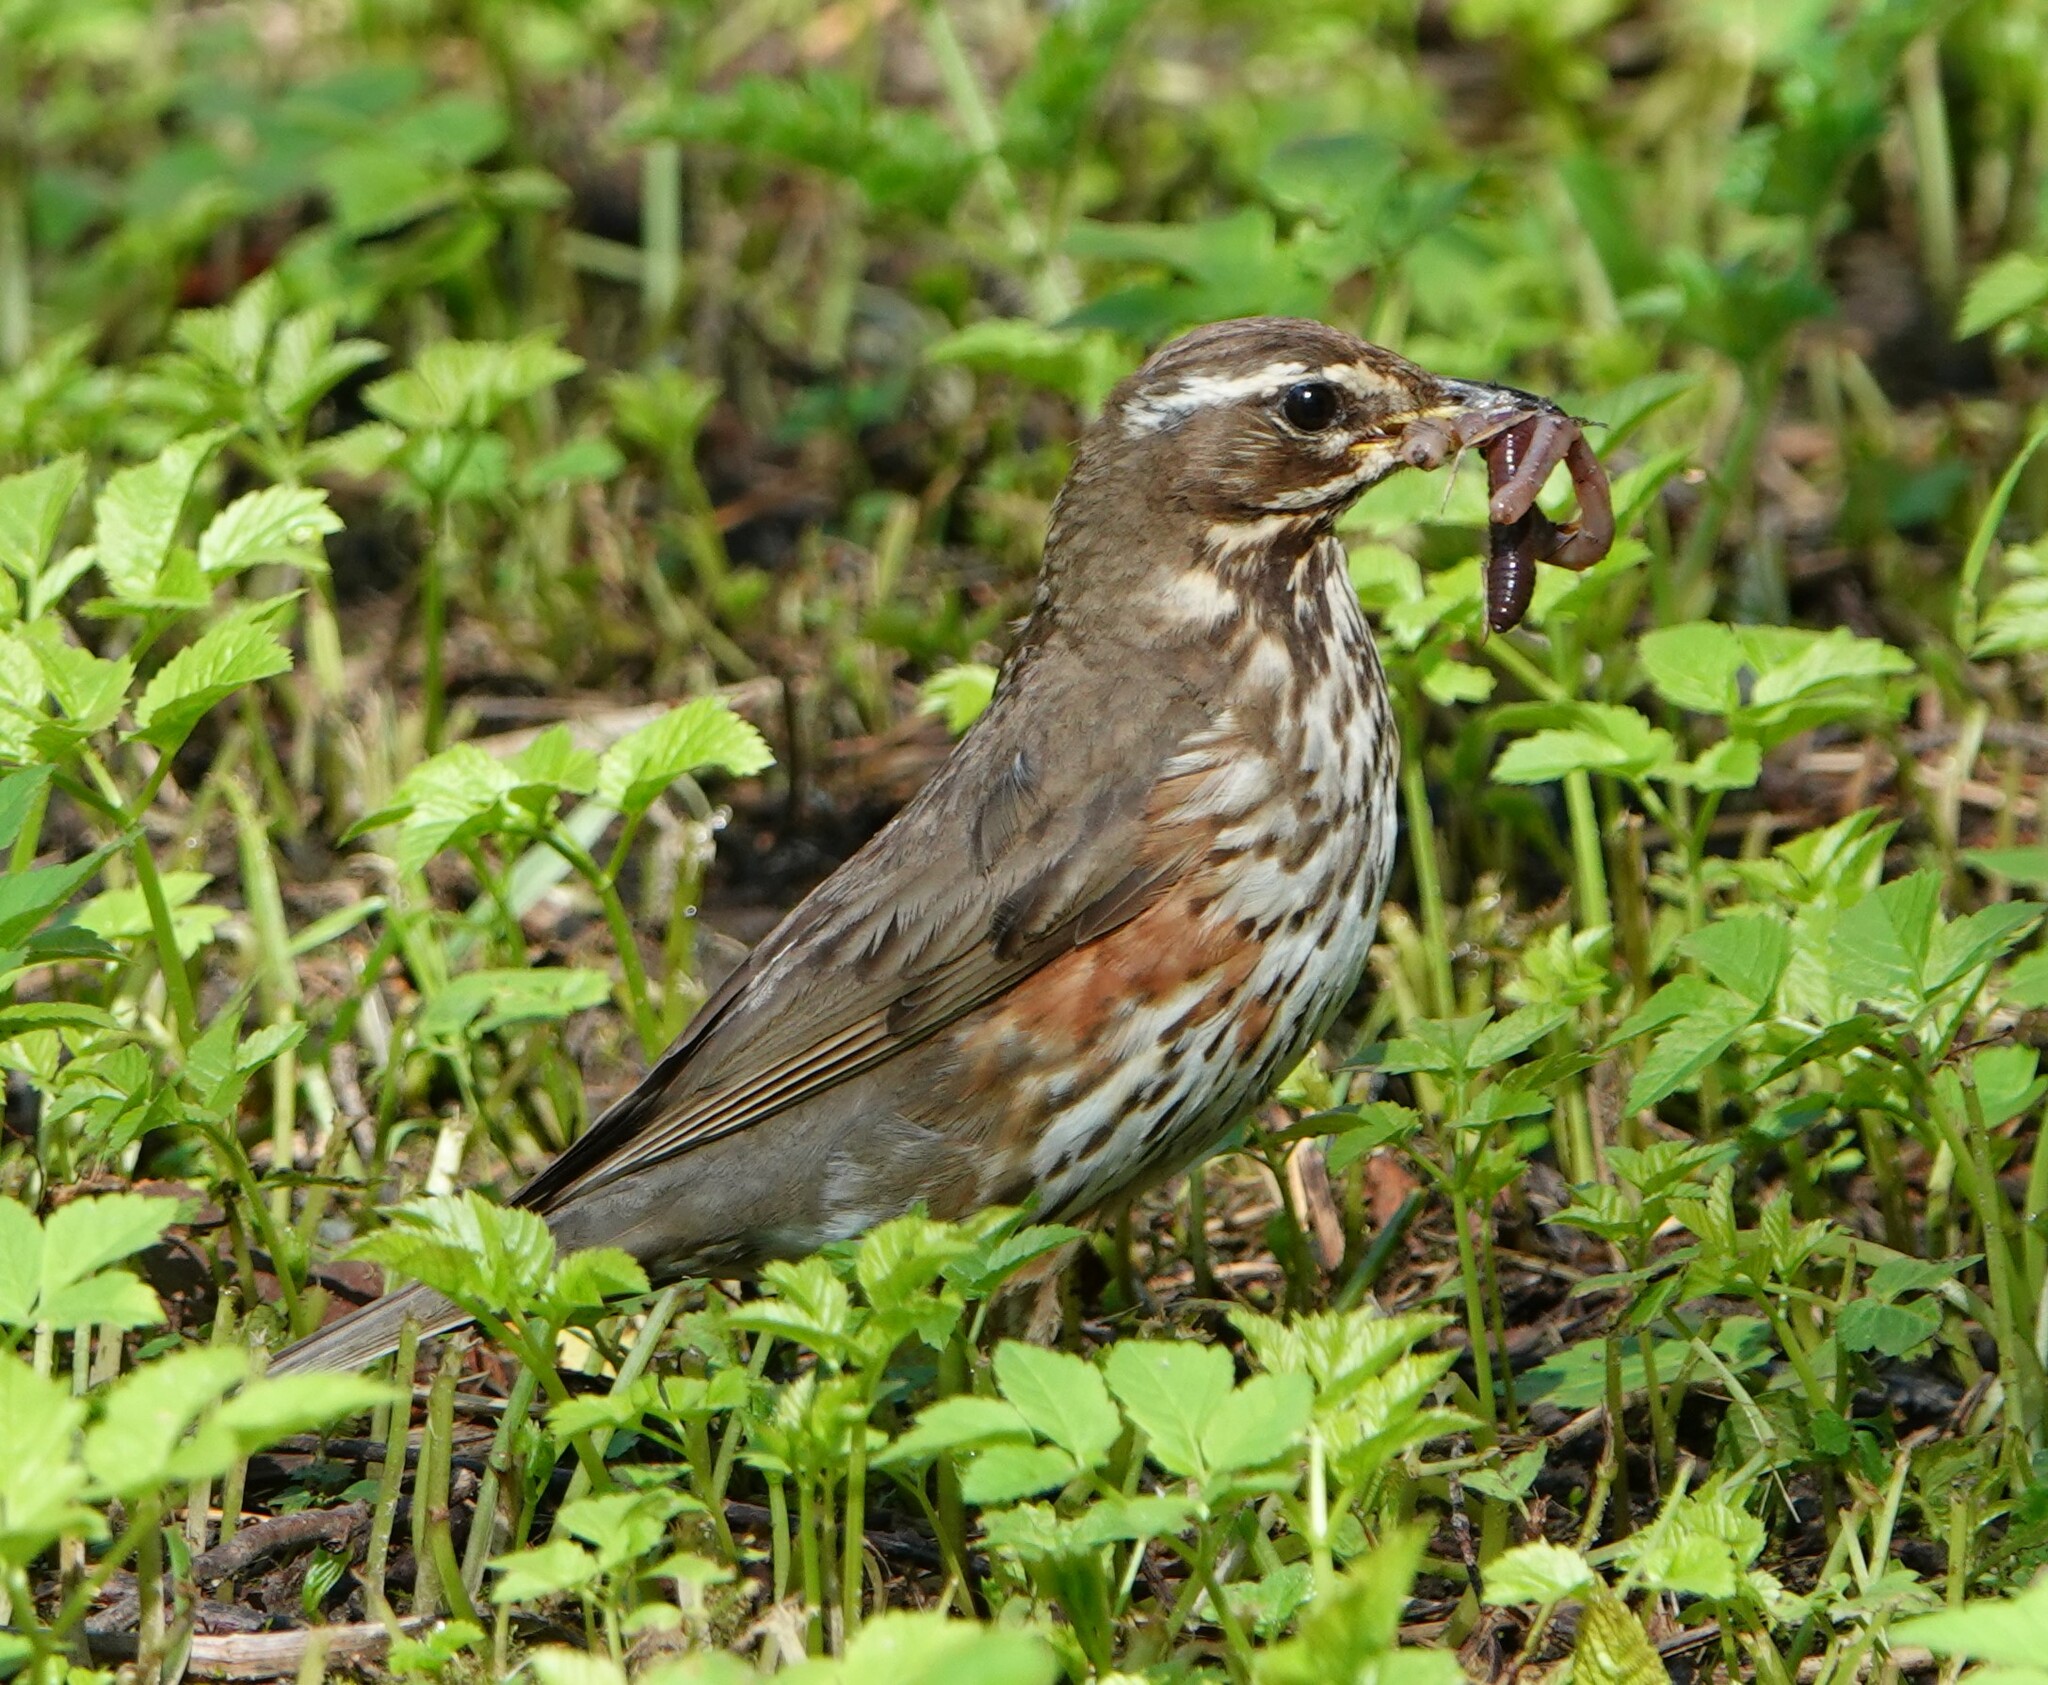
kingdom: Animalia
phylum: Chordata
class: Aves
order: Passeriformes
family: Turdidae
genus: Turdus
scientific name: Turdus iliacus
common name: Redwing
